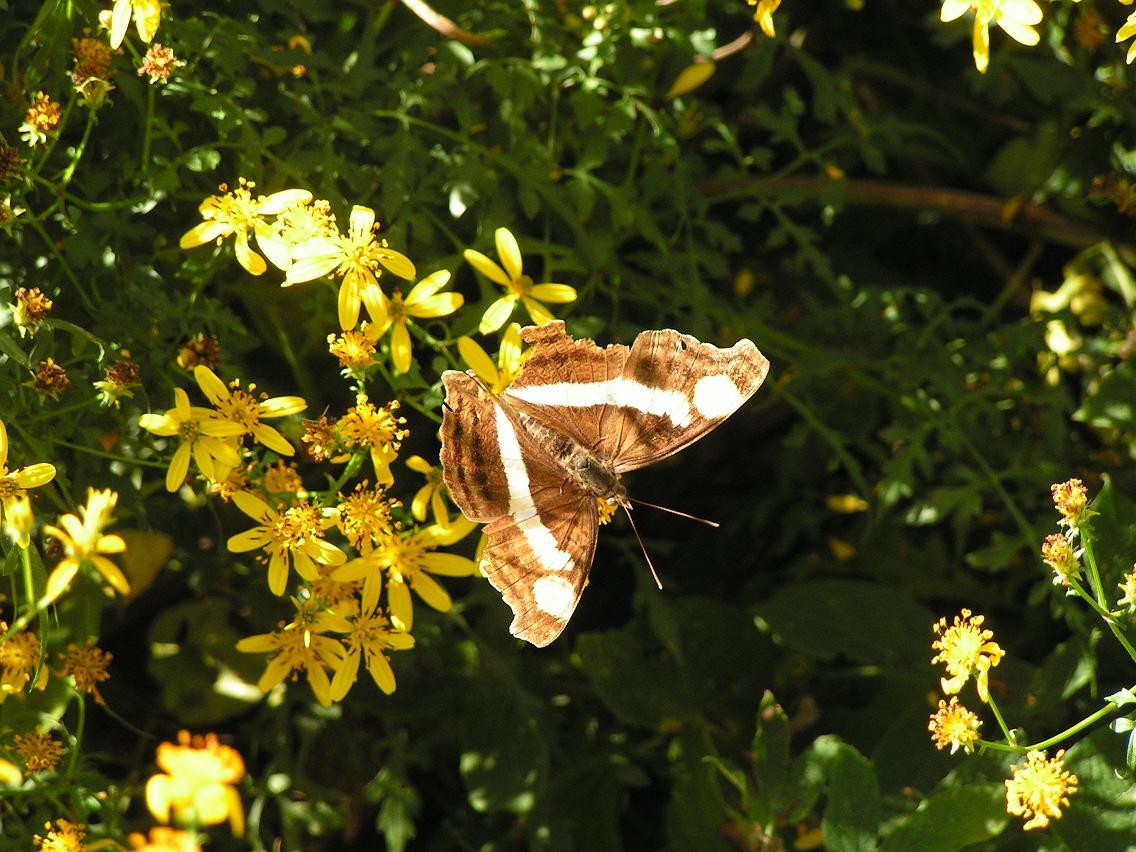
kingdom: Animalia
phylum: Arthropoda
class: Insecta
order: Lepidoptera
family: Nymphalidae
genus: Doxocopa
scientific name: Doxocopa laure
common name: Silver emperor
